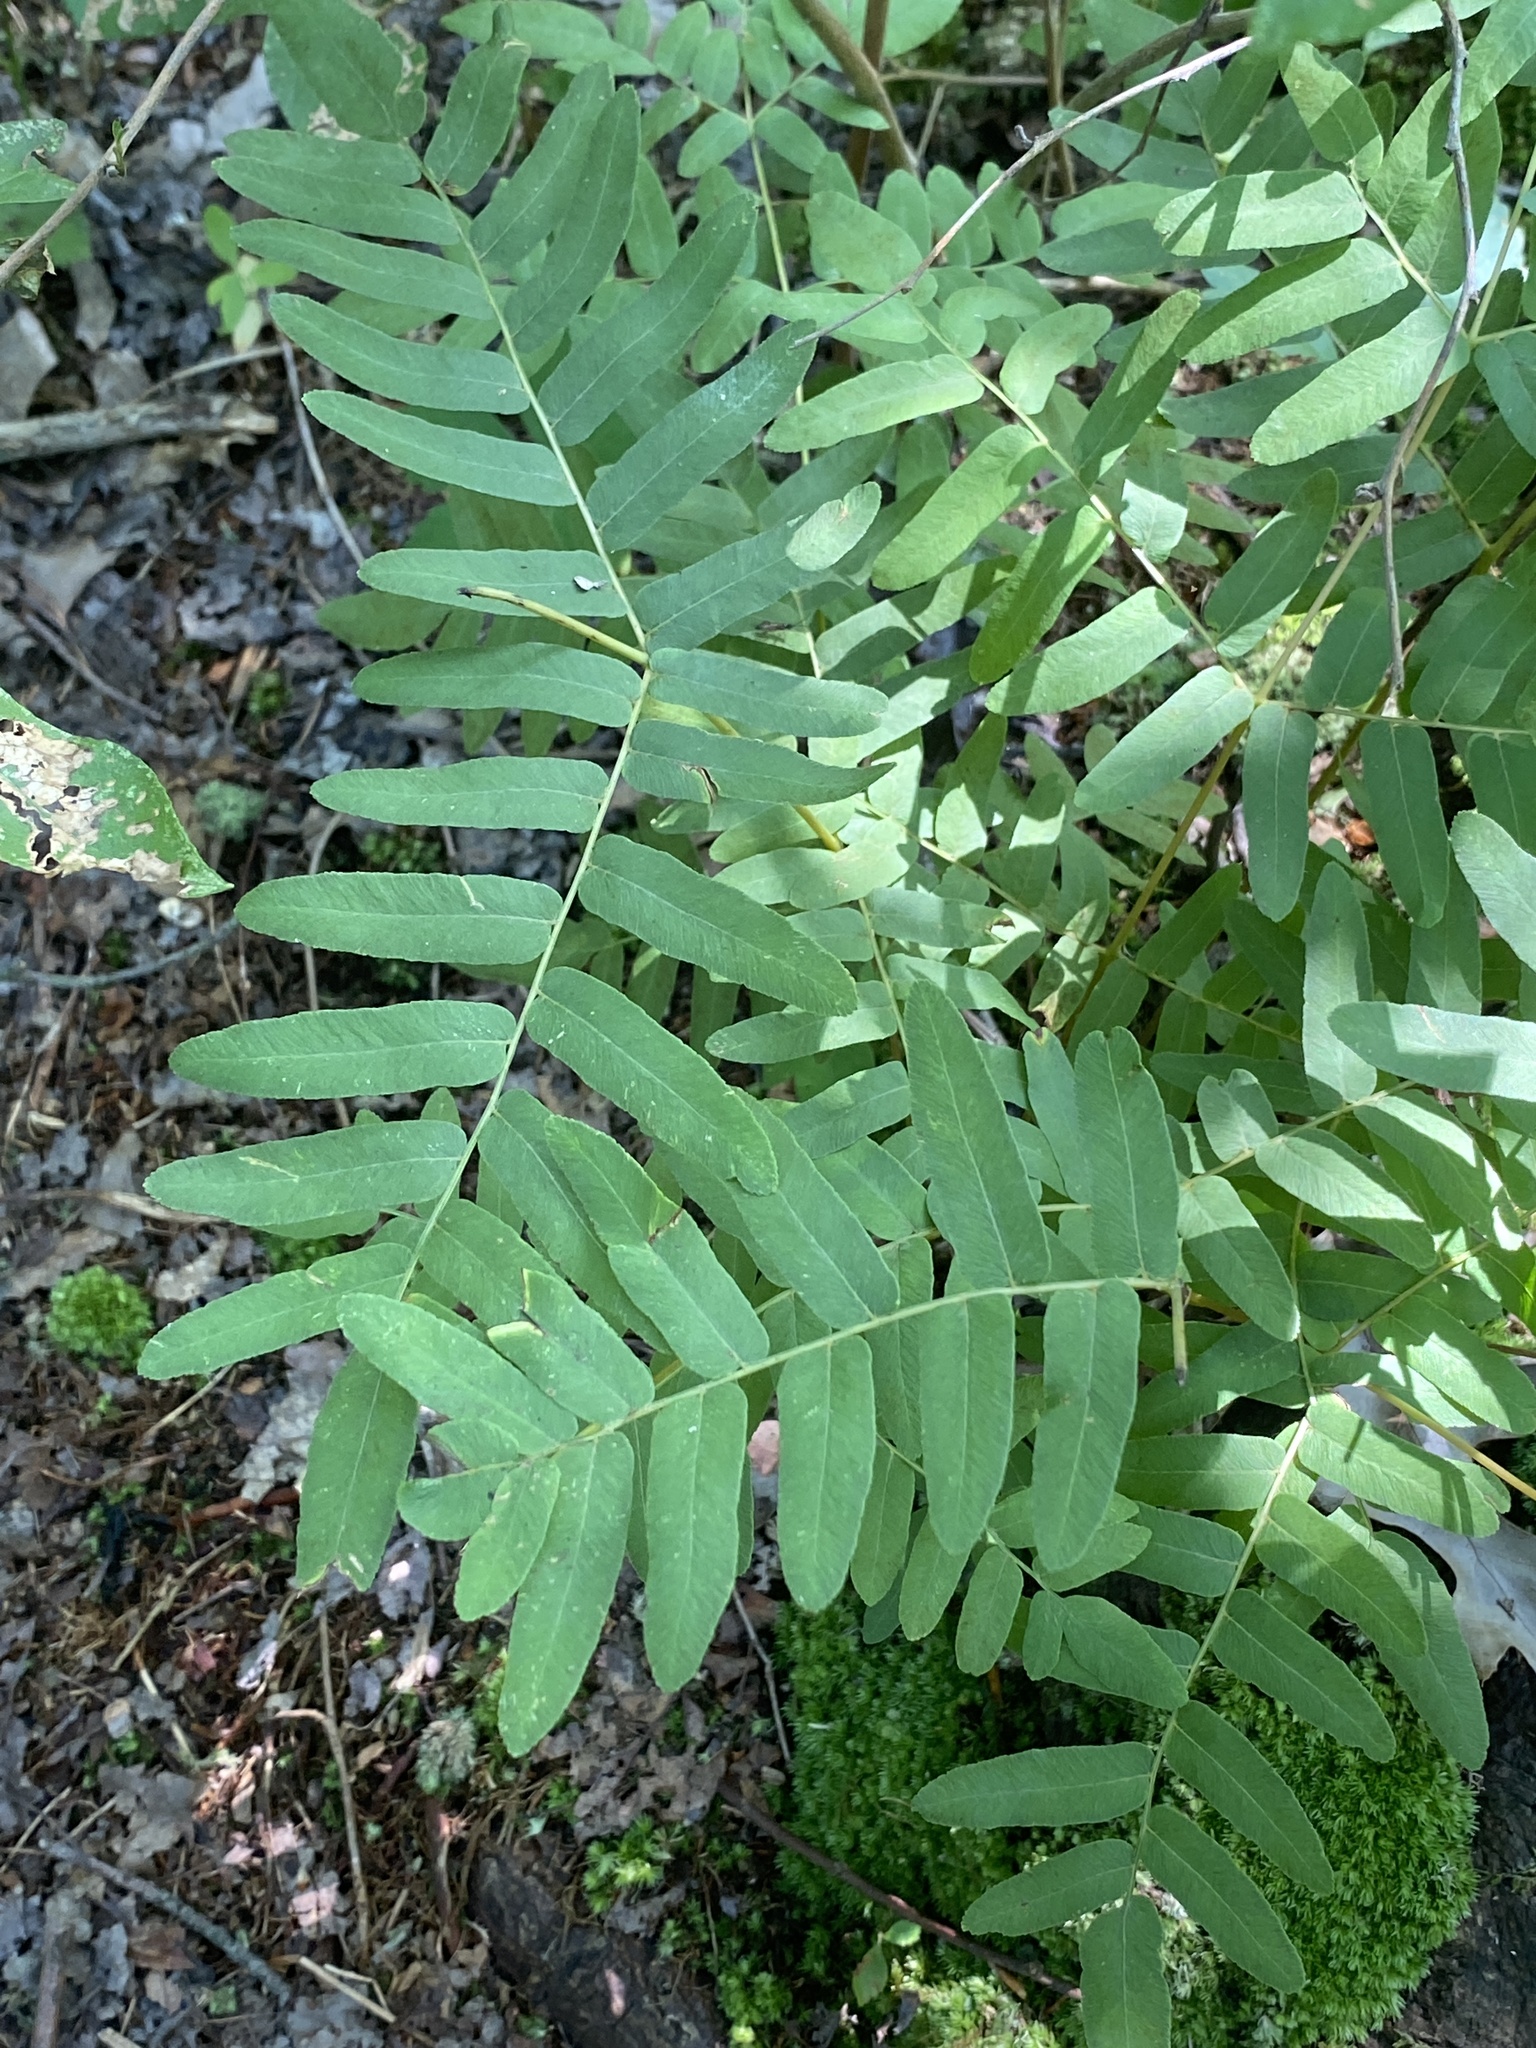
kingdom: Plantae
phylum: Tracheophyta
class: Polypodiopsida
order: Osmundales
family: Osmundaceae
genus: Osmunda
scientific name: Osmunda spectabilis
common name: American royal fern
